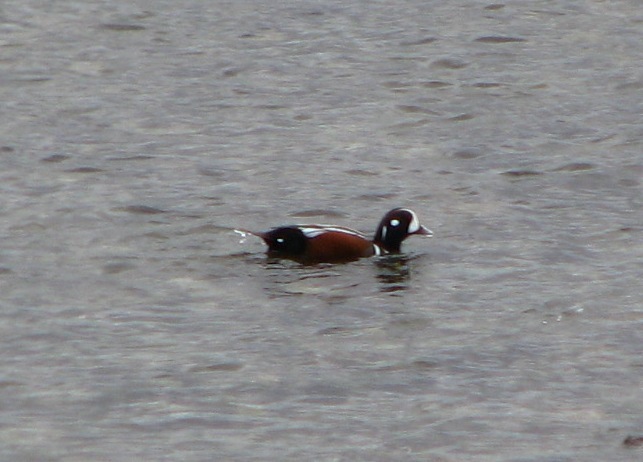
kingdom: Animalia
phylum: Chordata
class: Aves
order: Anseriformes
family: Anatidae
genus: Histrionicus
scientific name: Histrionicus histrionicus
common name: Harlequin duck
